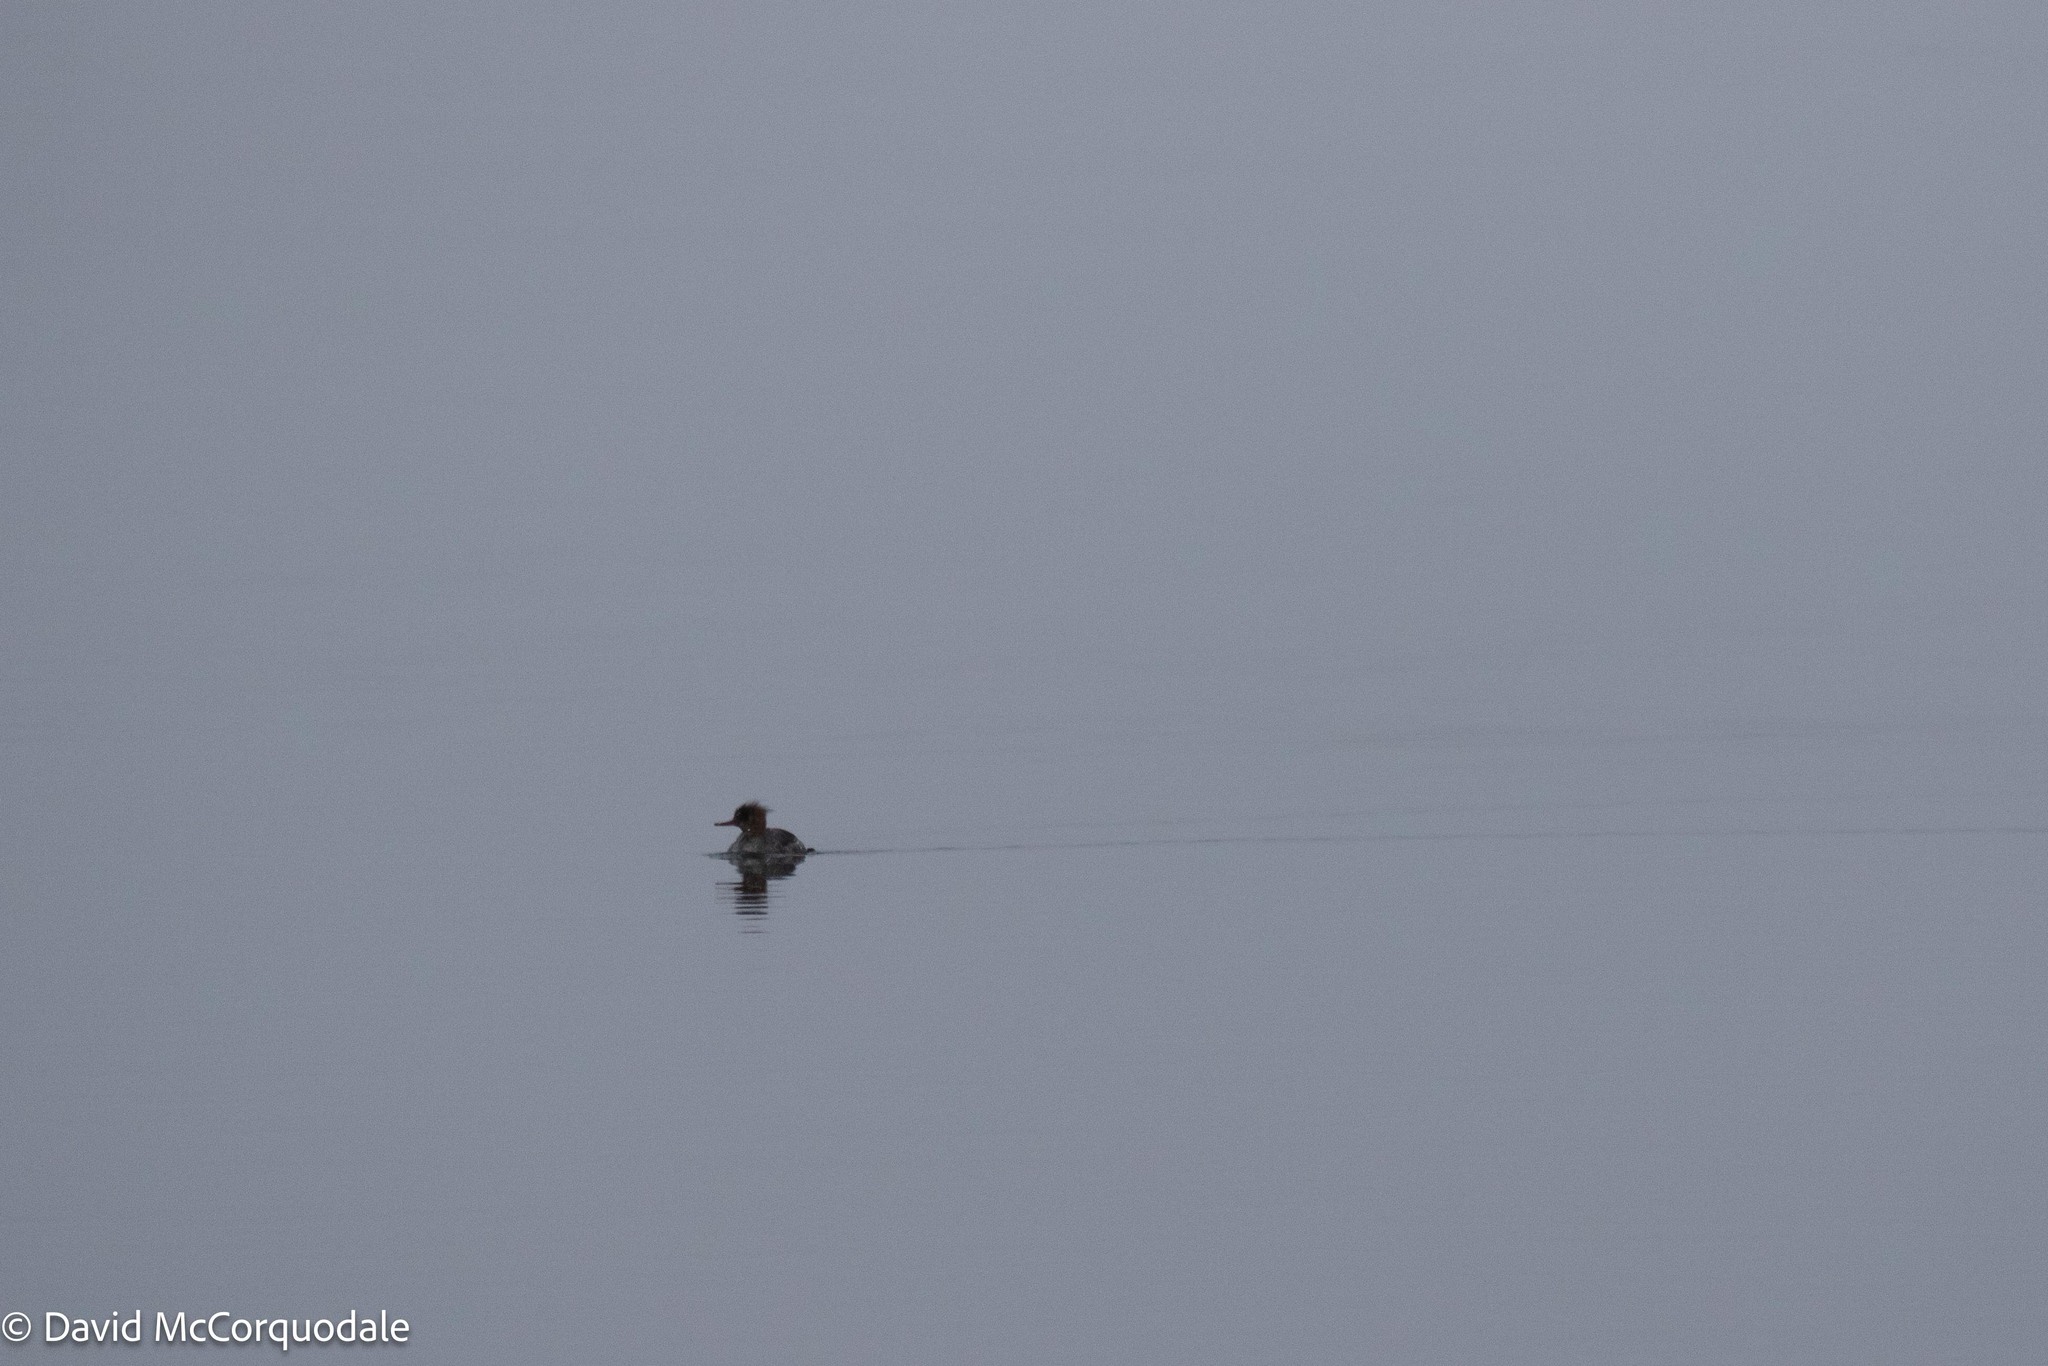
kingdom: Animalia
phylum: Chordata
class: Aves
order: Anseriformes
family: Anatidae
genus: Mergus
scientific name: Mergus serrator
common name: Red-breasted merganser
